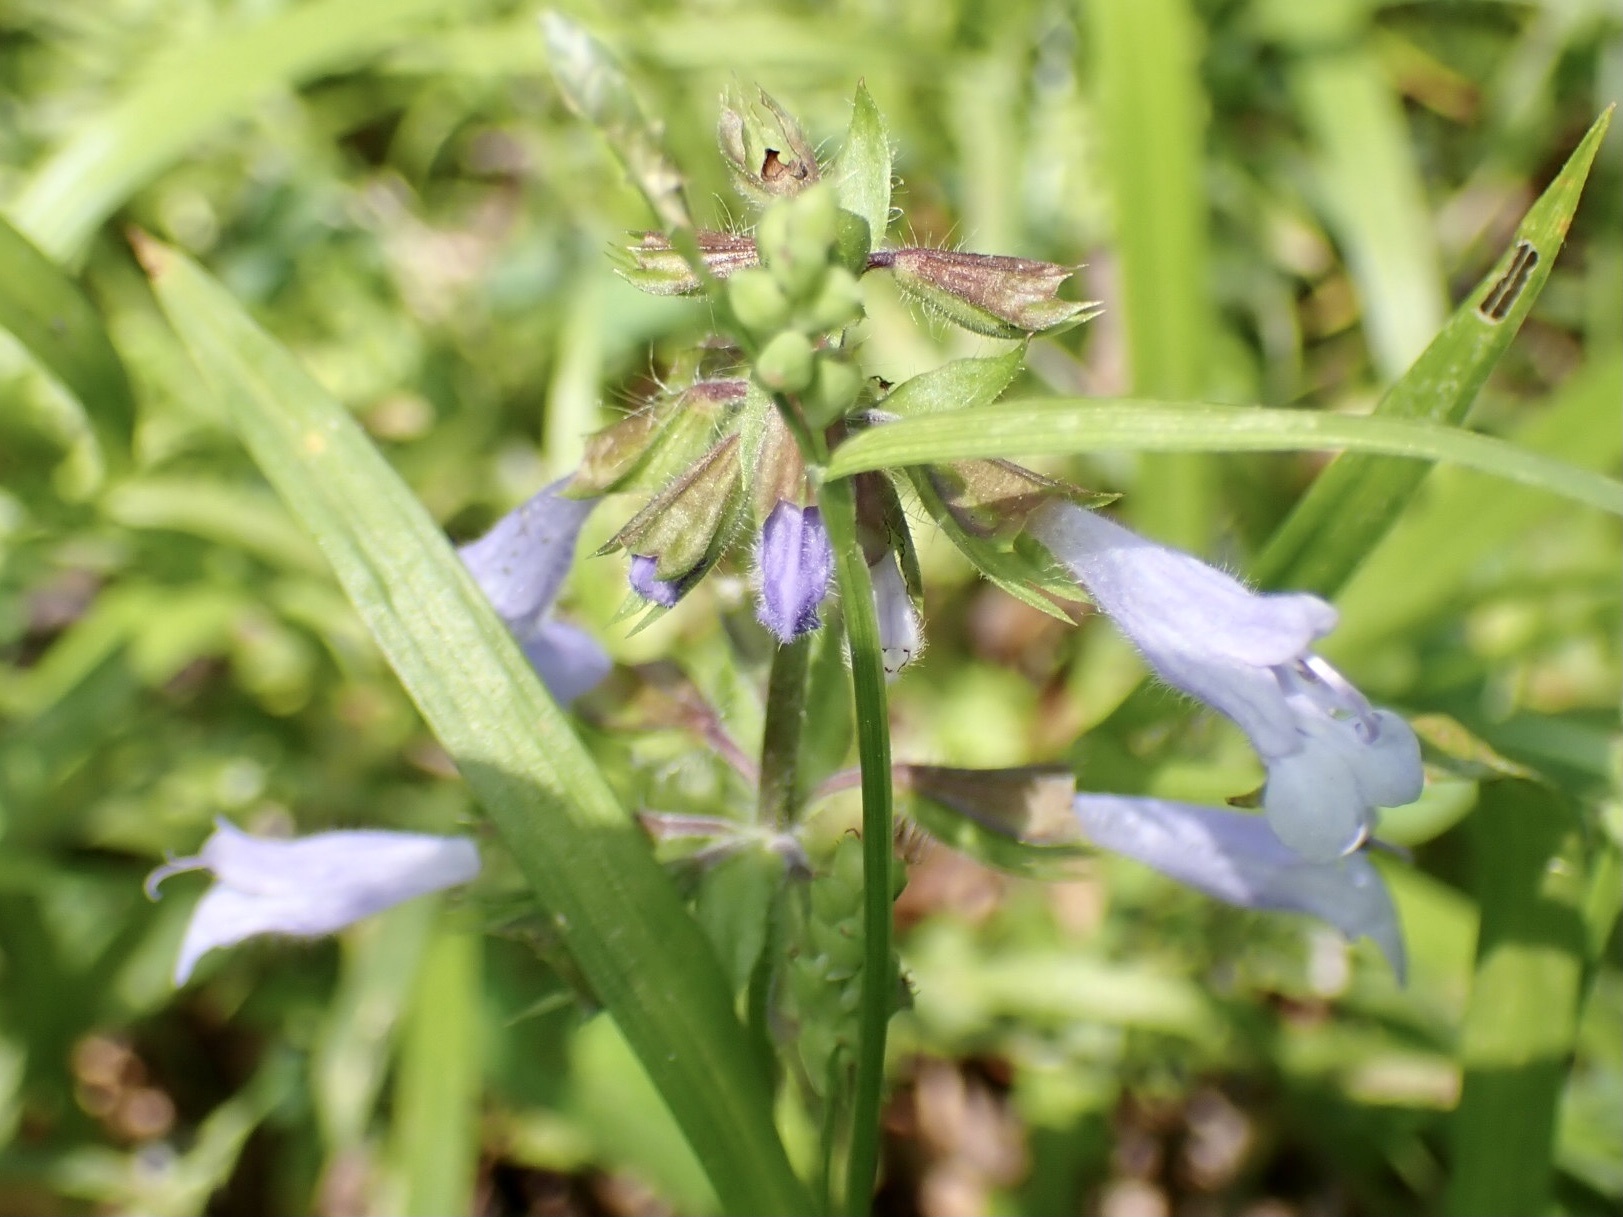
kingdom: Plantae
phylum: Tracheophyta
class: Magnoliopsida
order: Lamiales
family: Lamiaceae
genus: Salvia
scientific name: Salvia lyrata
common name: Cancerweed
